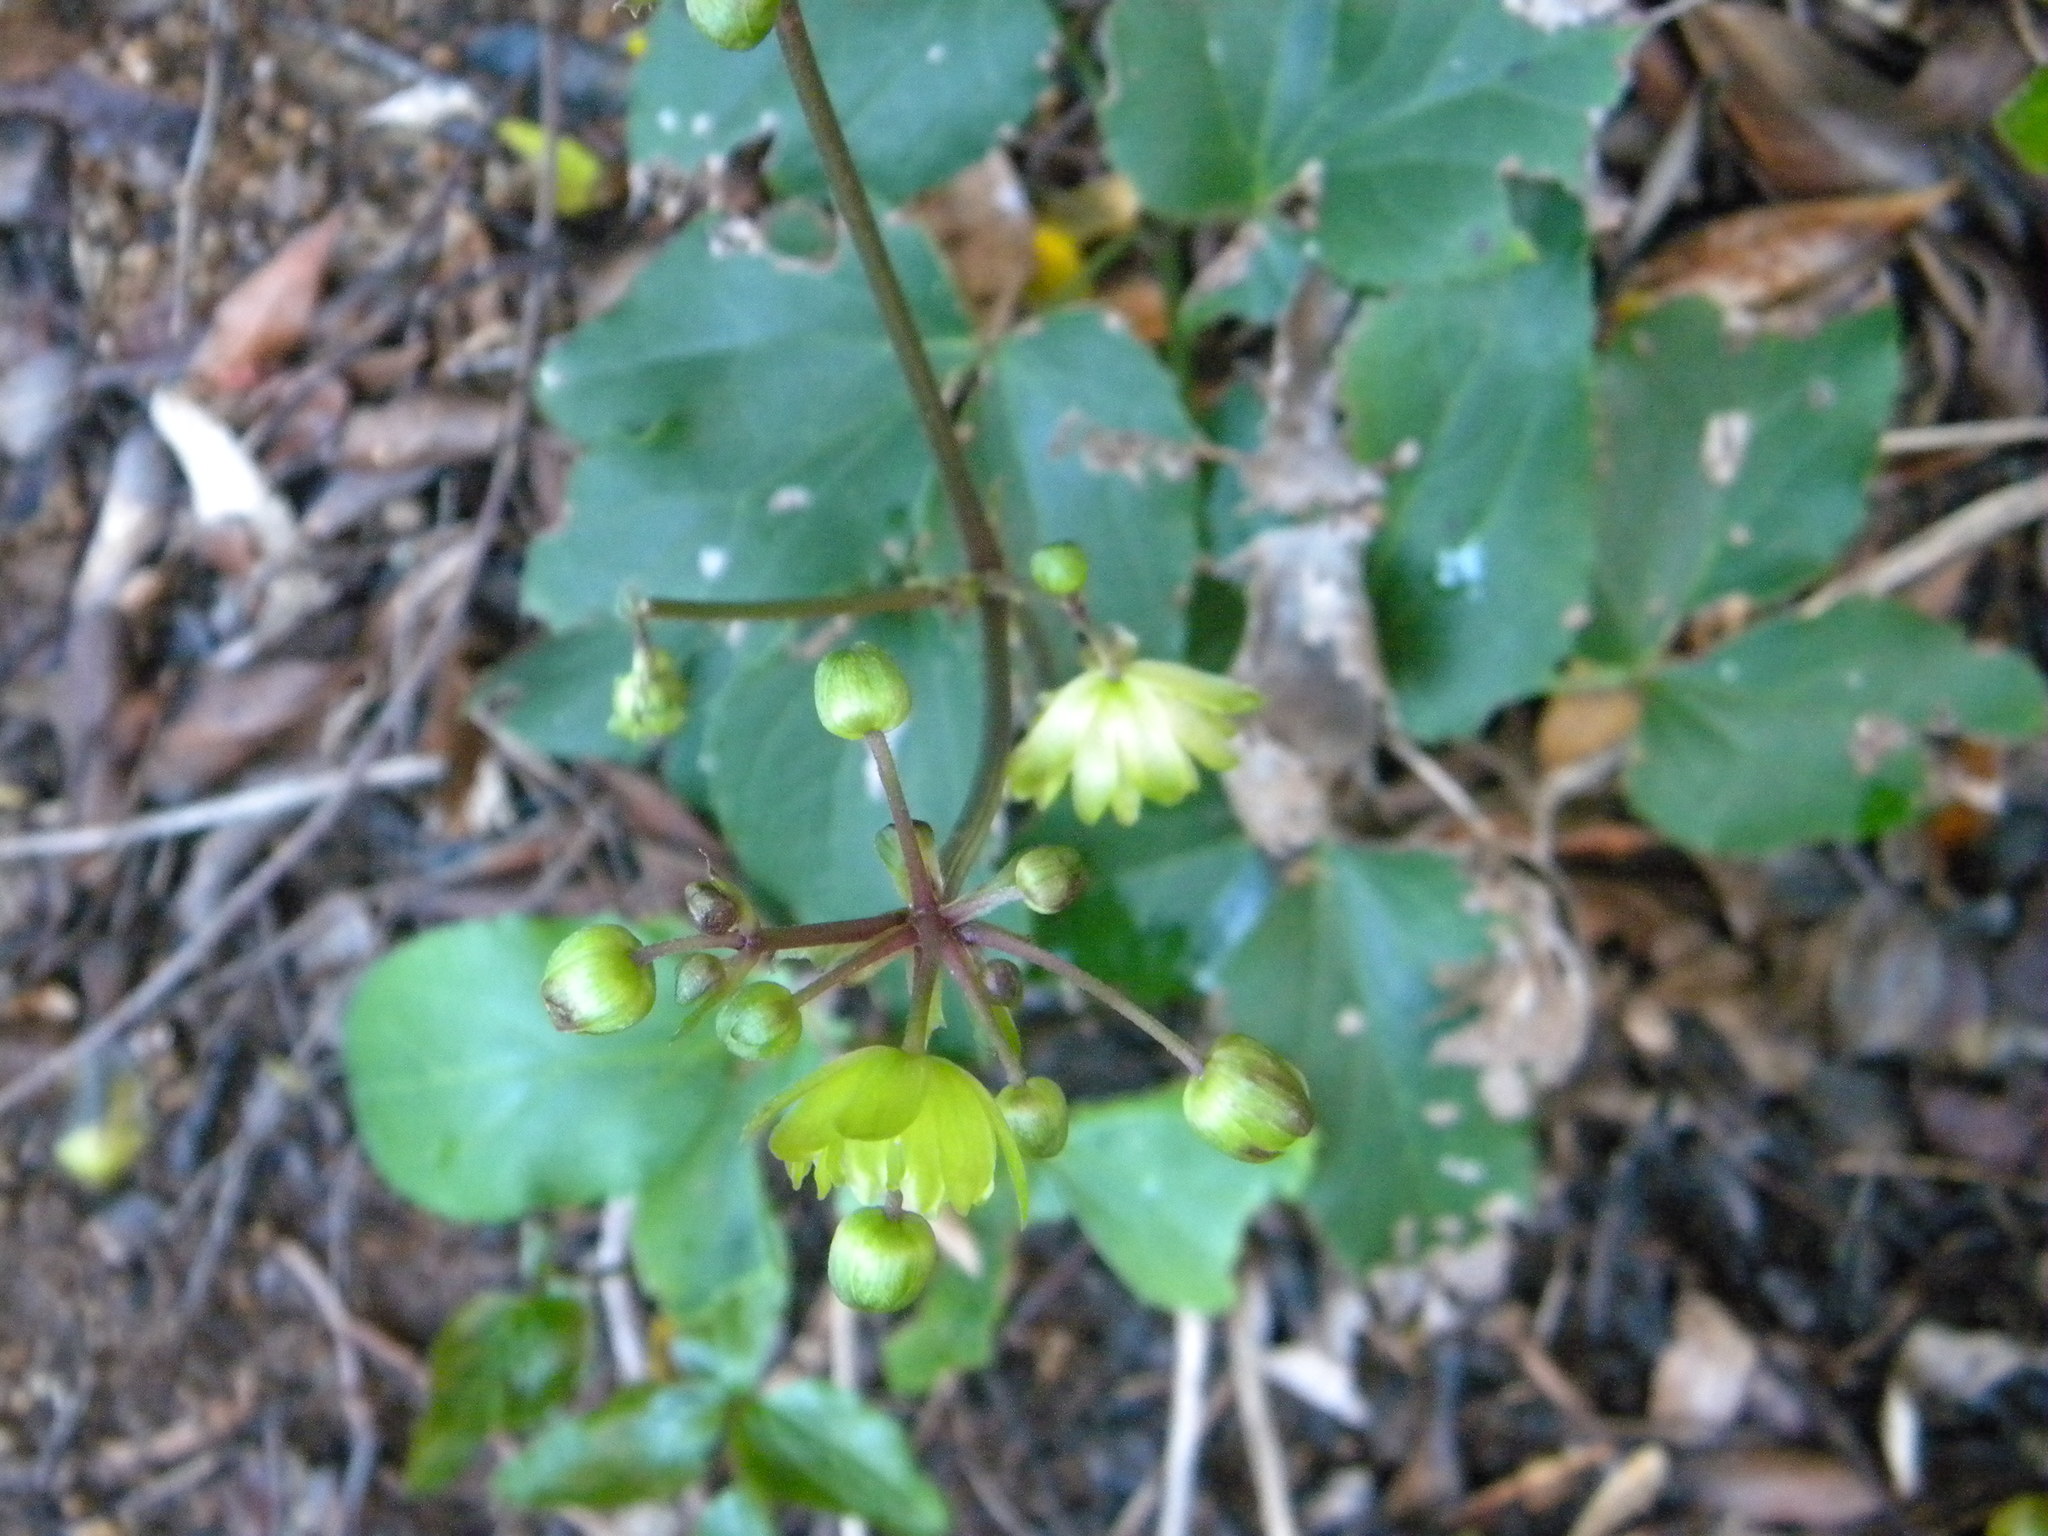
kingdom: Plantae
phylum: Tracheophyta
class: Magnoliopsida
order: Ranunculales
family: Ranunculaceae
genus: Knowltonia
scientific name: Knowltonia vesicatoria
